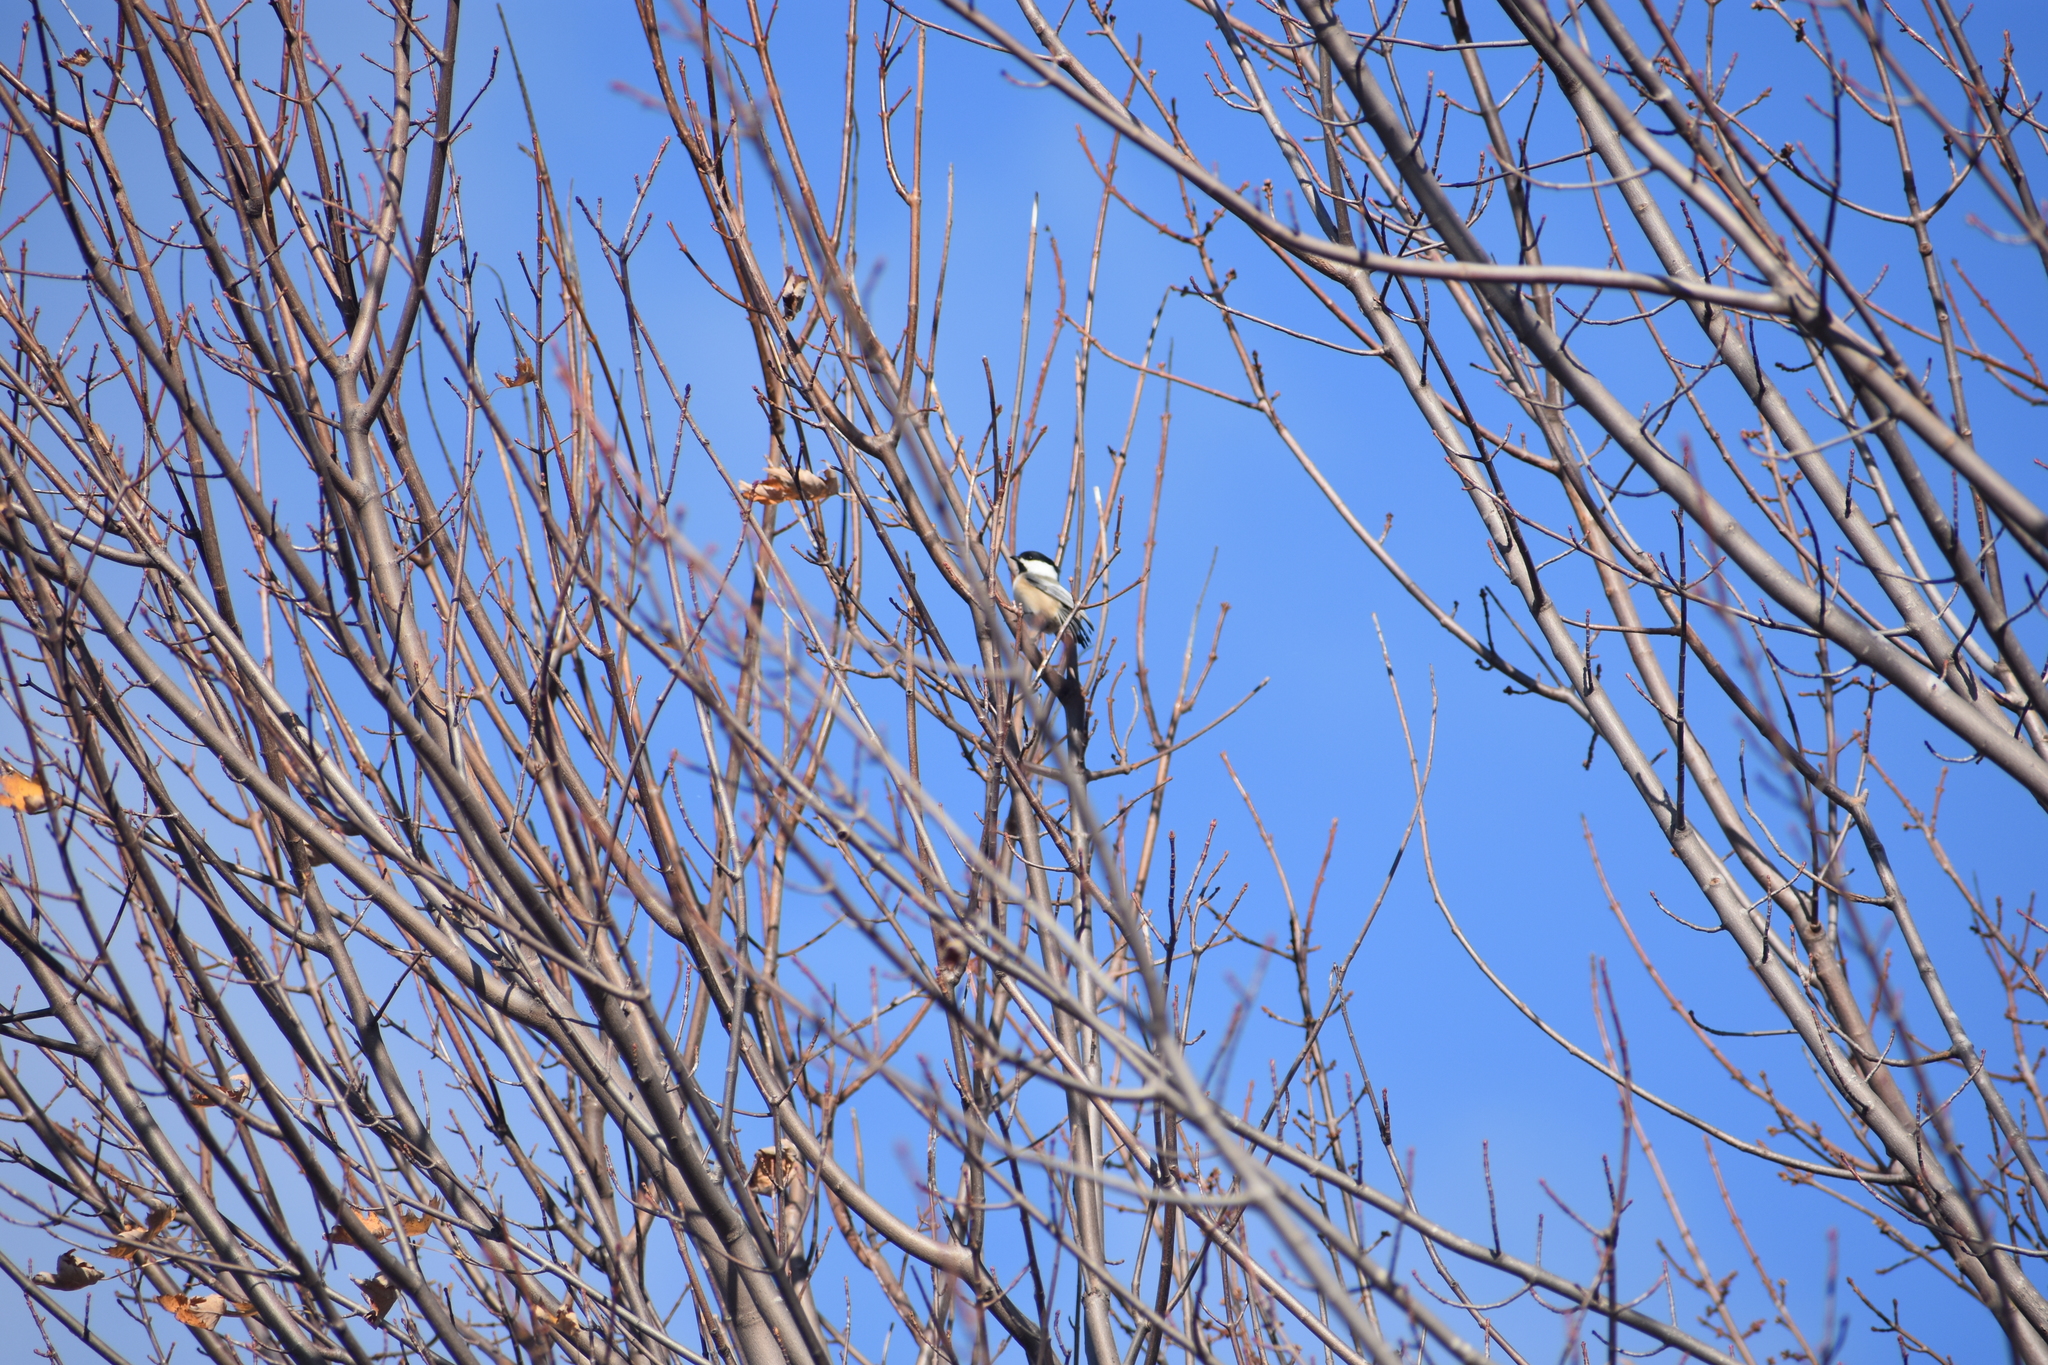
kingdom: Animalia
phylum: Chordata
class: Aves
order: Passeriformes
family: Paridae
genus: Poecile
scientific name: Poecile atricapillus
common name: Black-capped chickadee
